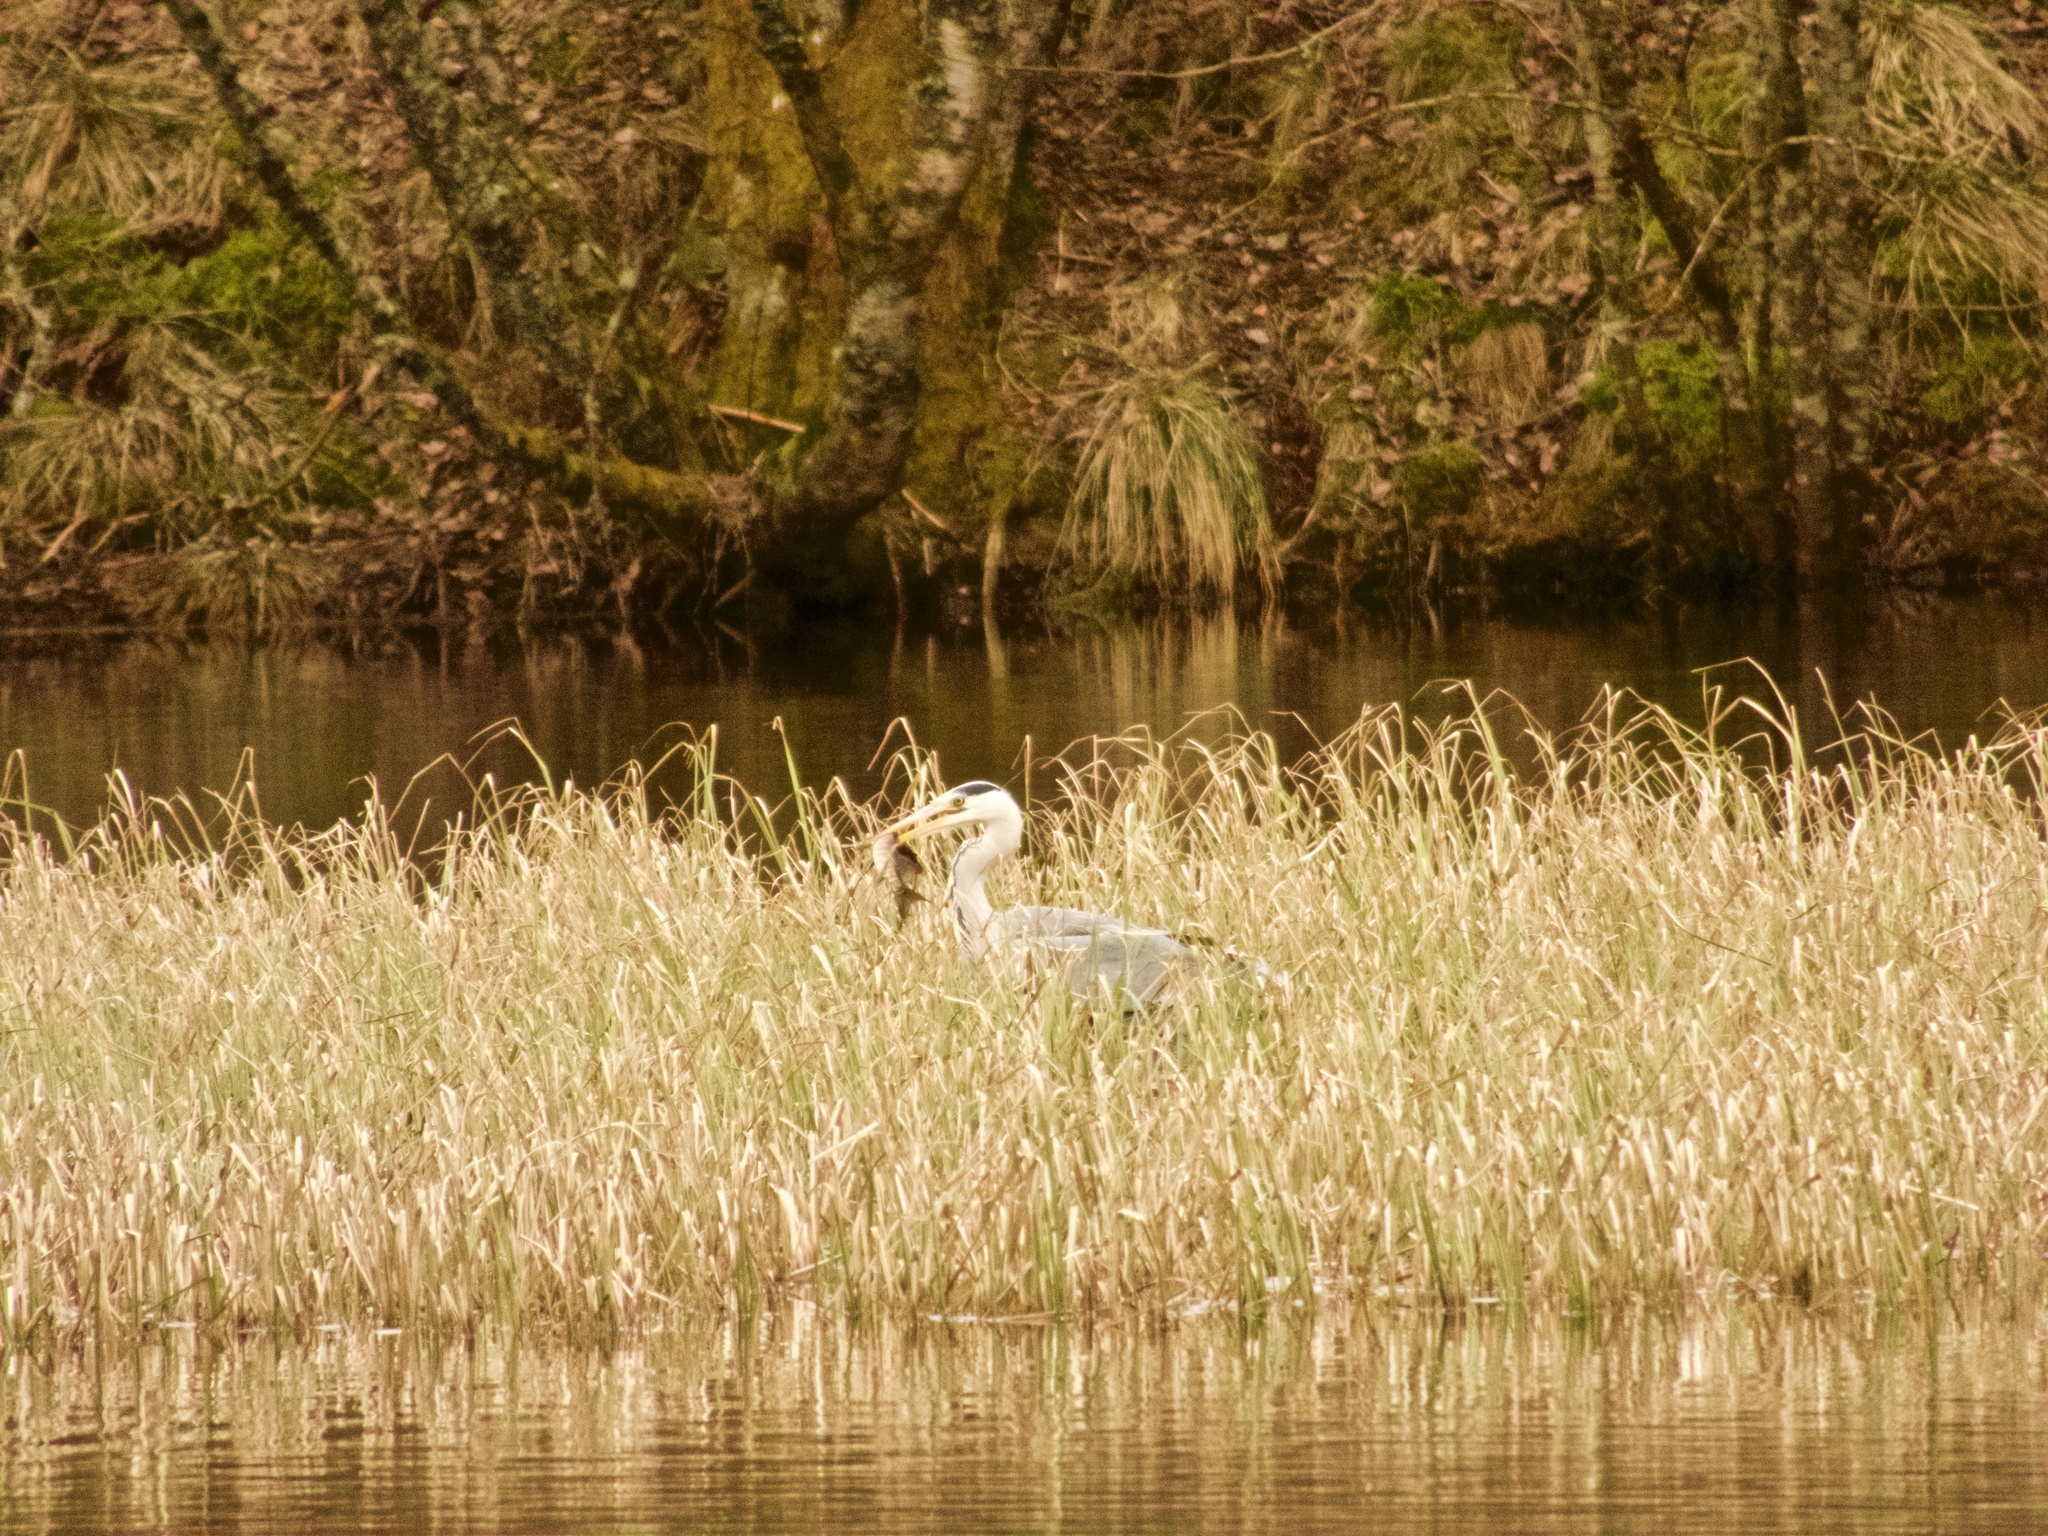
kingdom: Animalia
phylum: Chordata
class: Aves
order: Pelecaniformes
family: Ardeidae
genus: Ardea
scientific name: Ardea cinerea
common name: Grey heron
